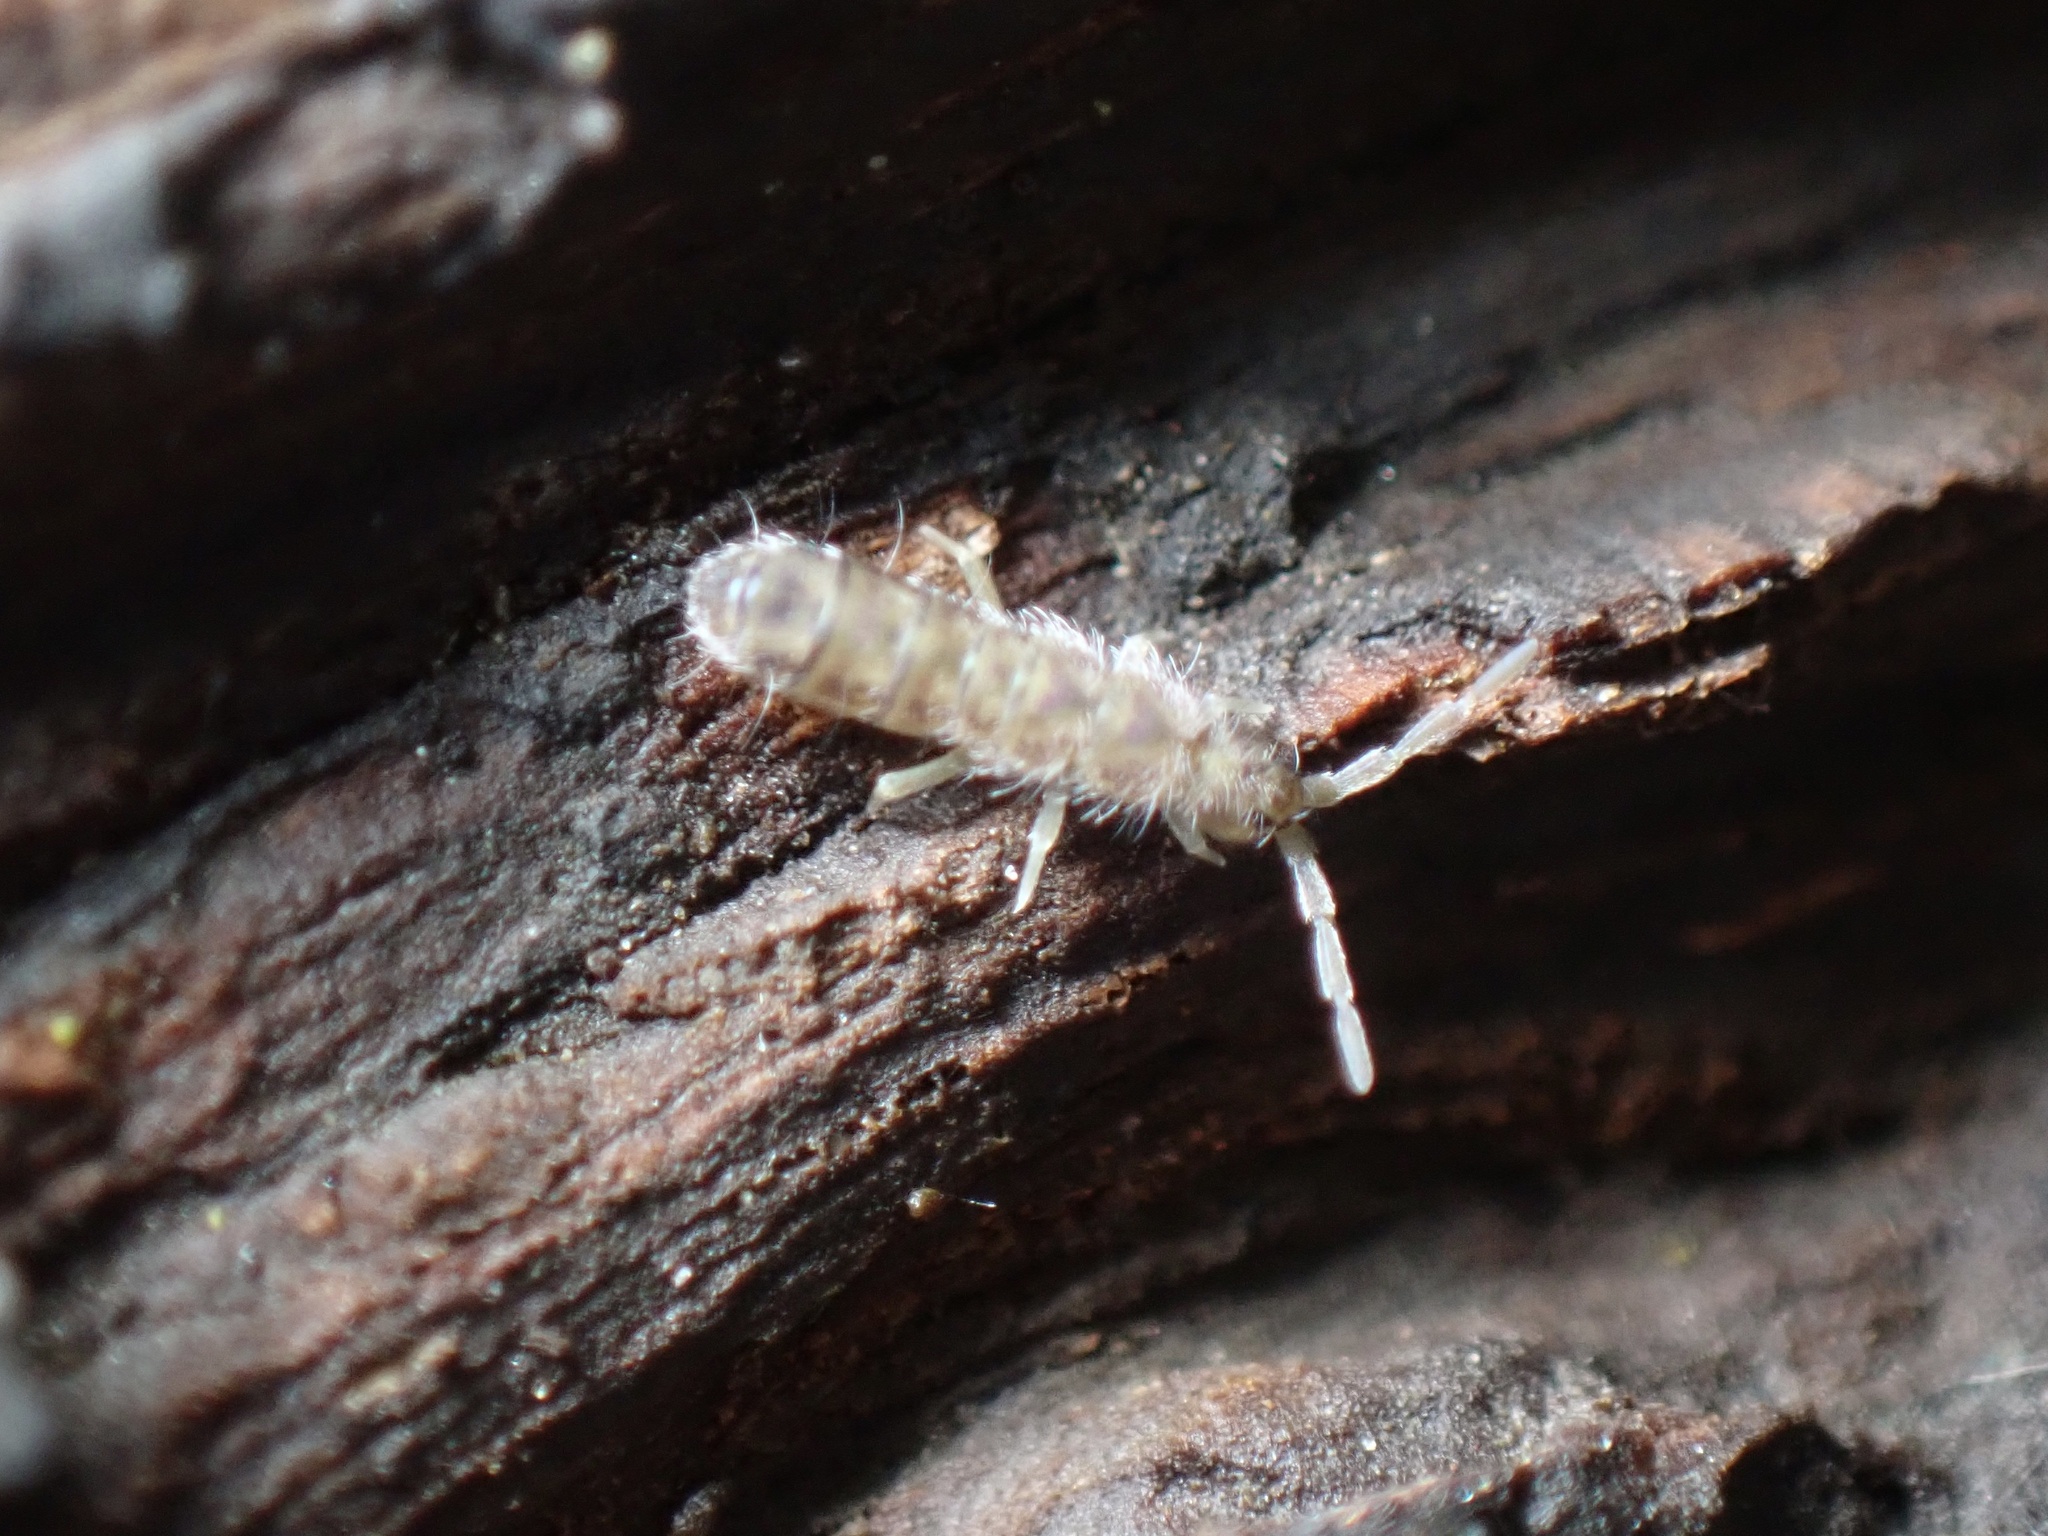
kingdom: Animalia
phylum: Arthropoda
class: Collembola
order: Entomobryomorpha
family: Isotomidae
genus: Isotoma
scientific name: Isotoma delta
